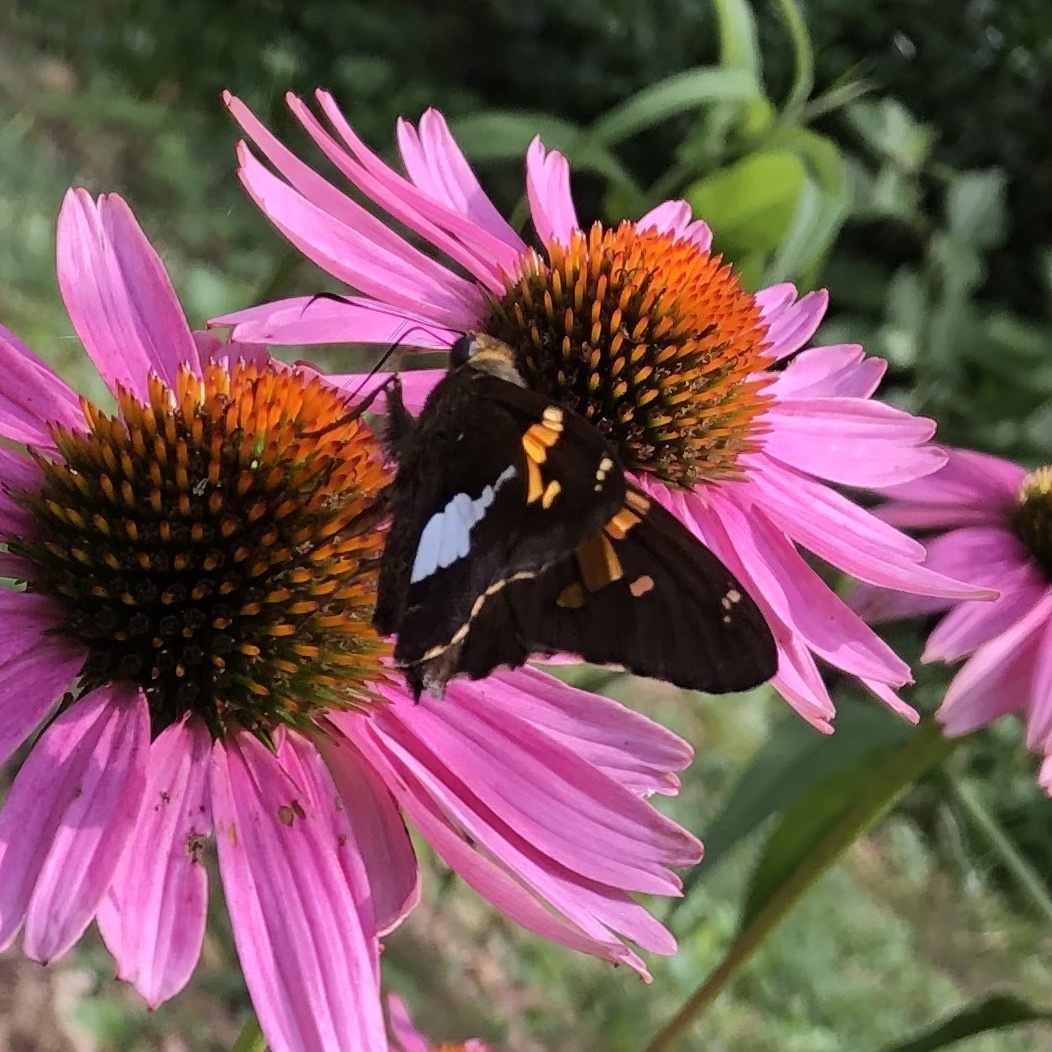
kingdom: Animalia
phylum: Arthropoda
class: Insecta
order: Lepidoptera
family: Hesperiidae
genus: Epargyreus
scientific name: Epargyreus clarus
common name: Silver-spotted skipper
